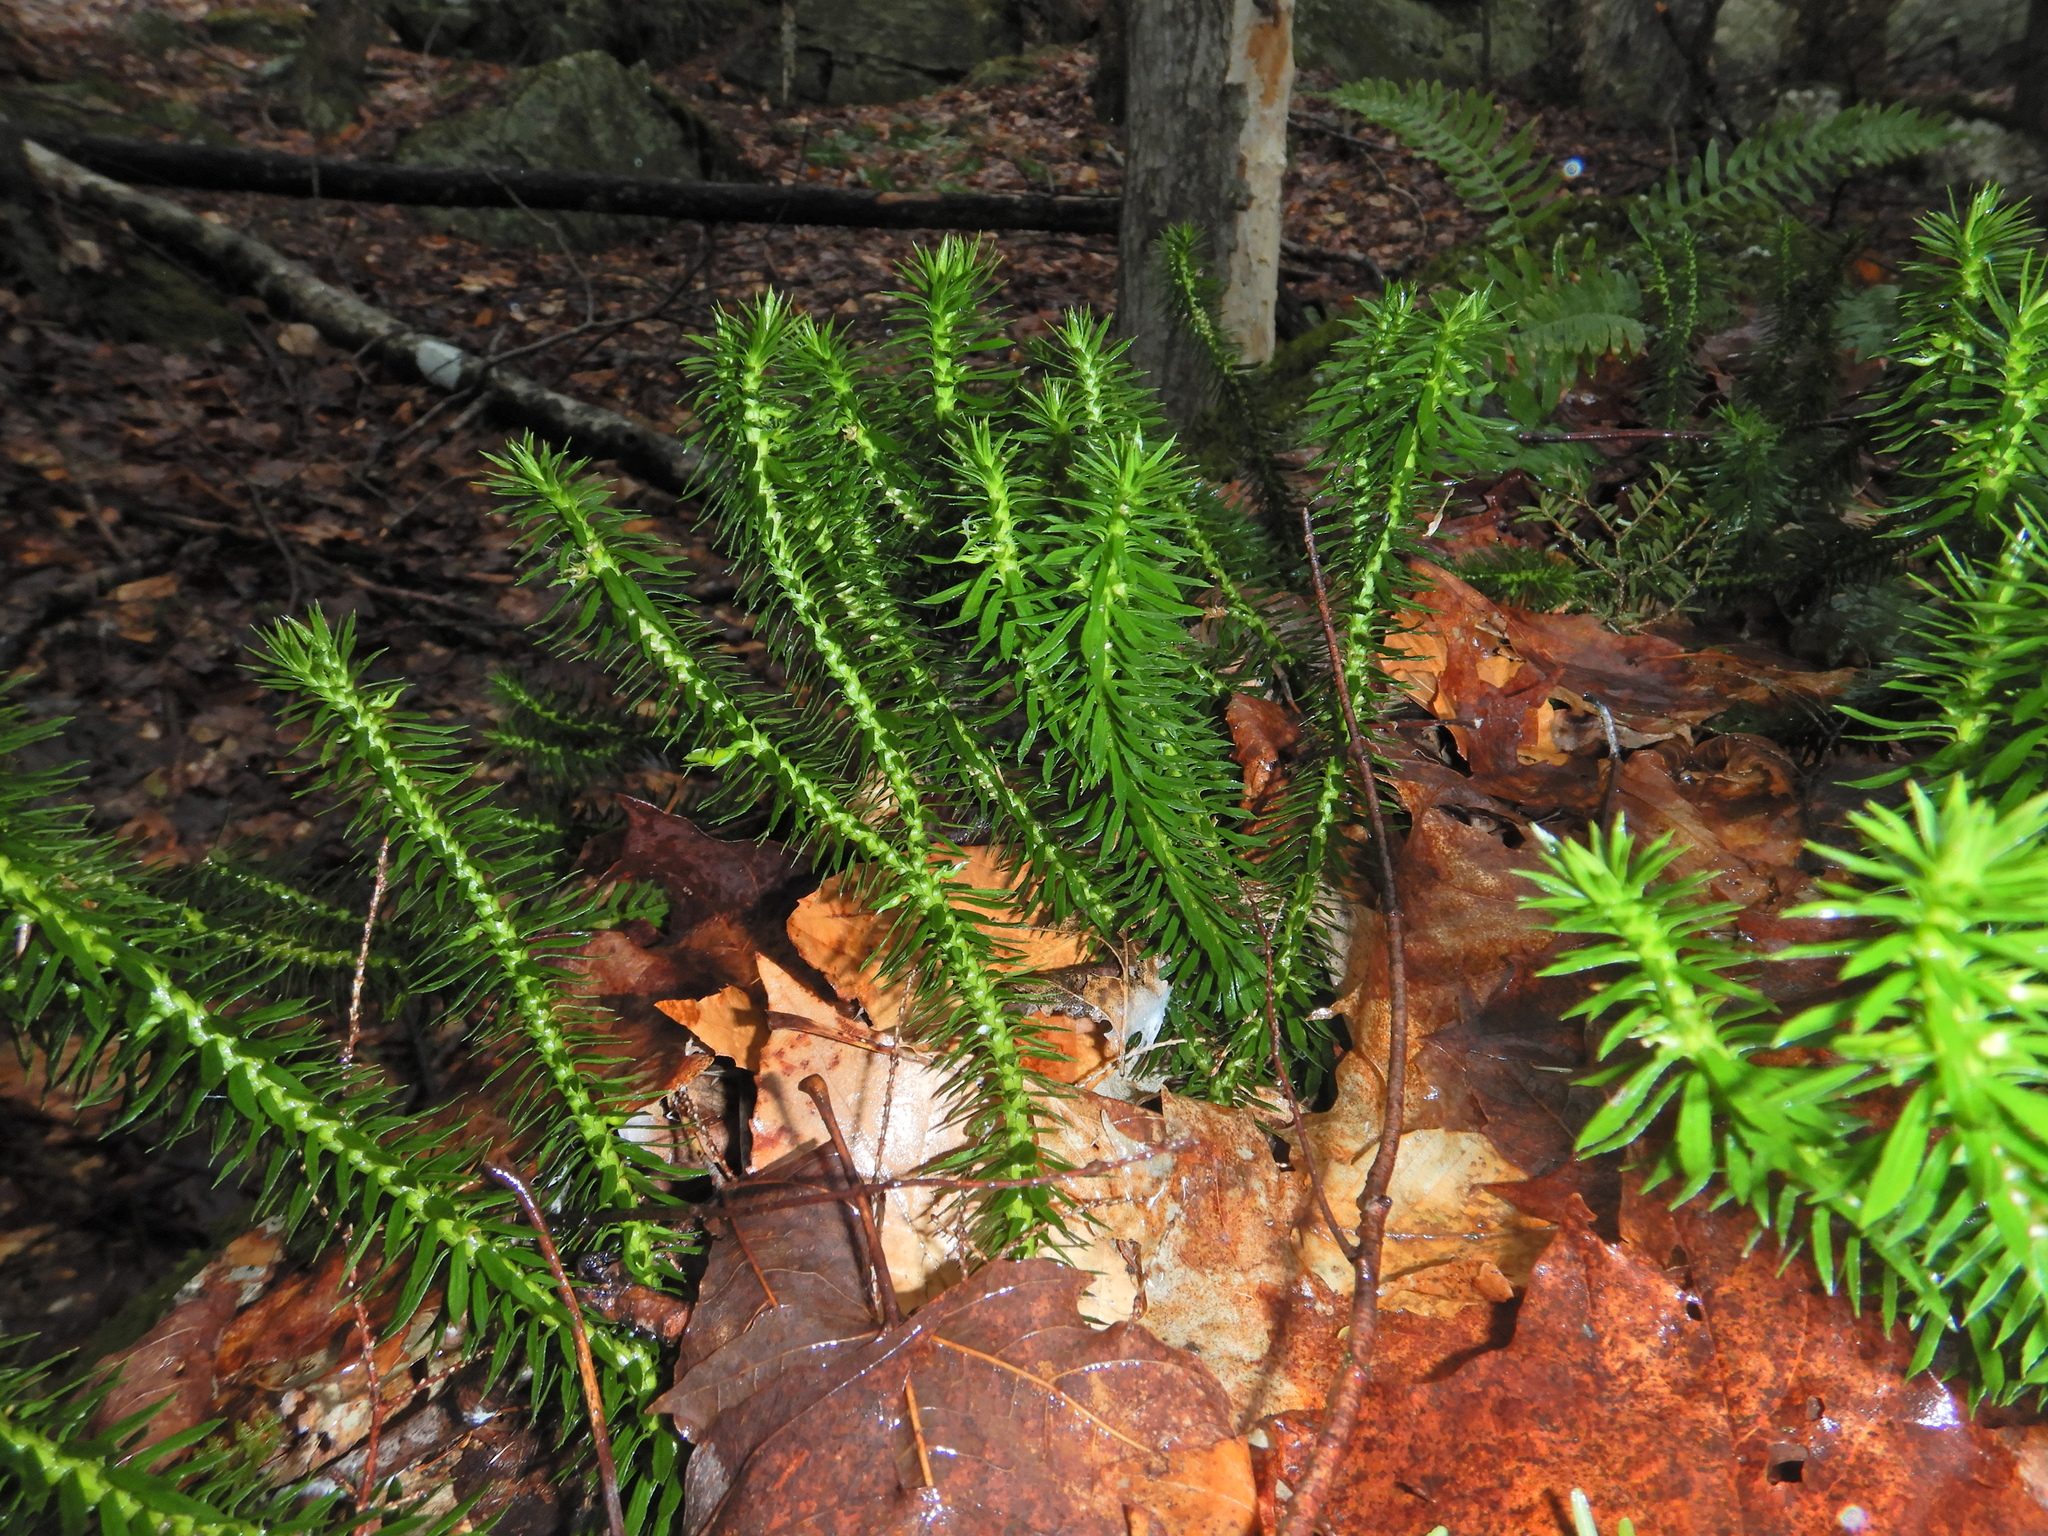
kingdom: Plantae
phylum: Tracheophyta
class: Lycopodiopsida
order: Lycopodiales
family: Lycopodiaceae
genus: Huperzia
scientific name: Huperzia lucidula
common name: Shining clubmoss
